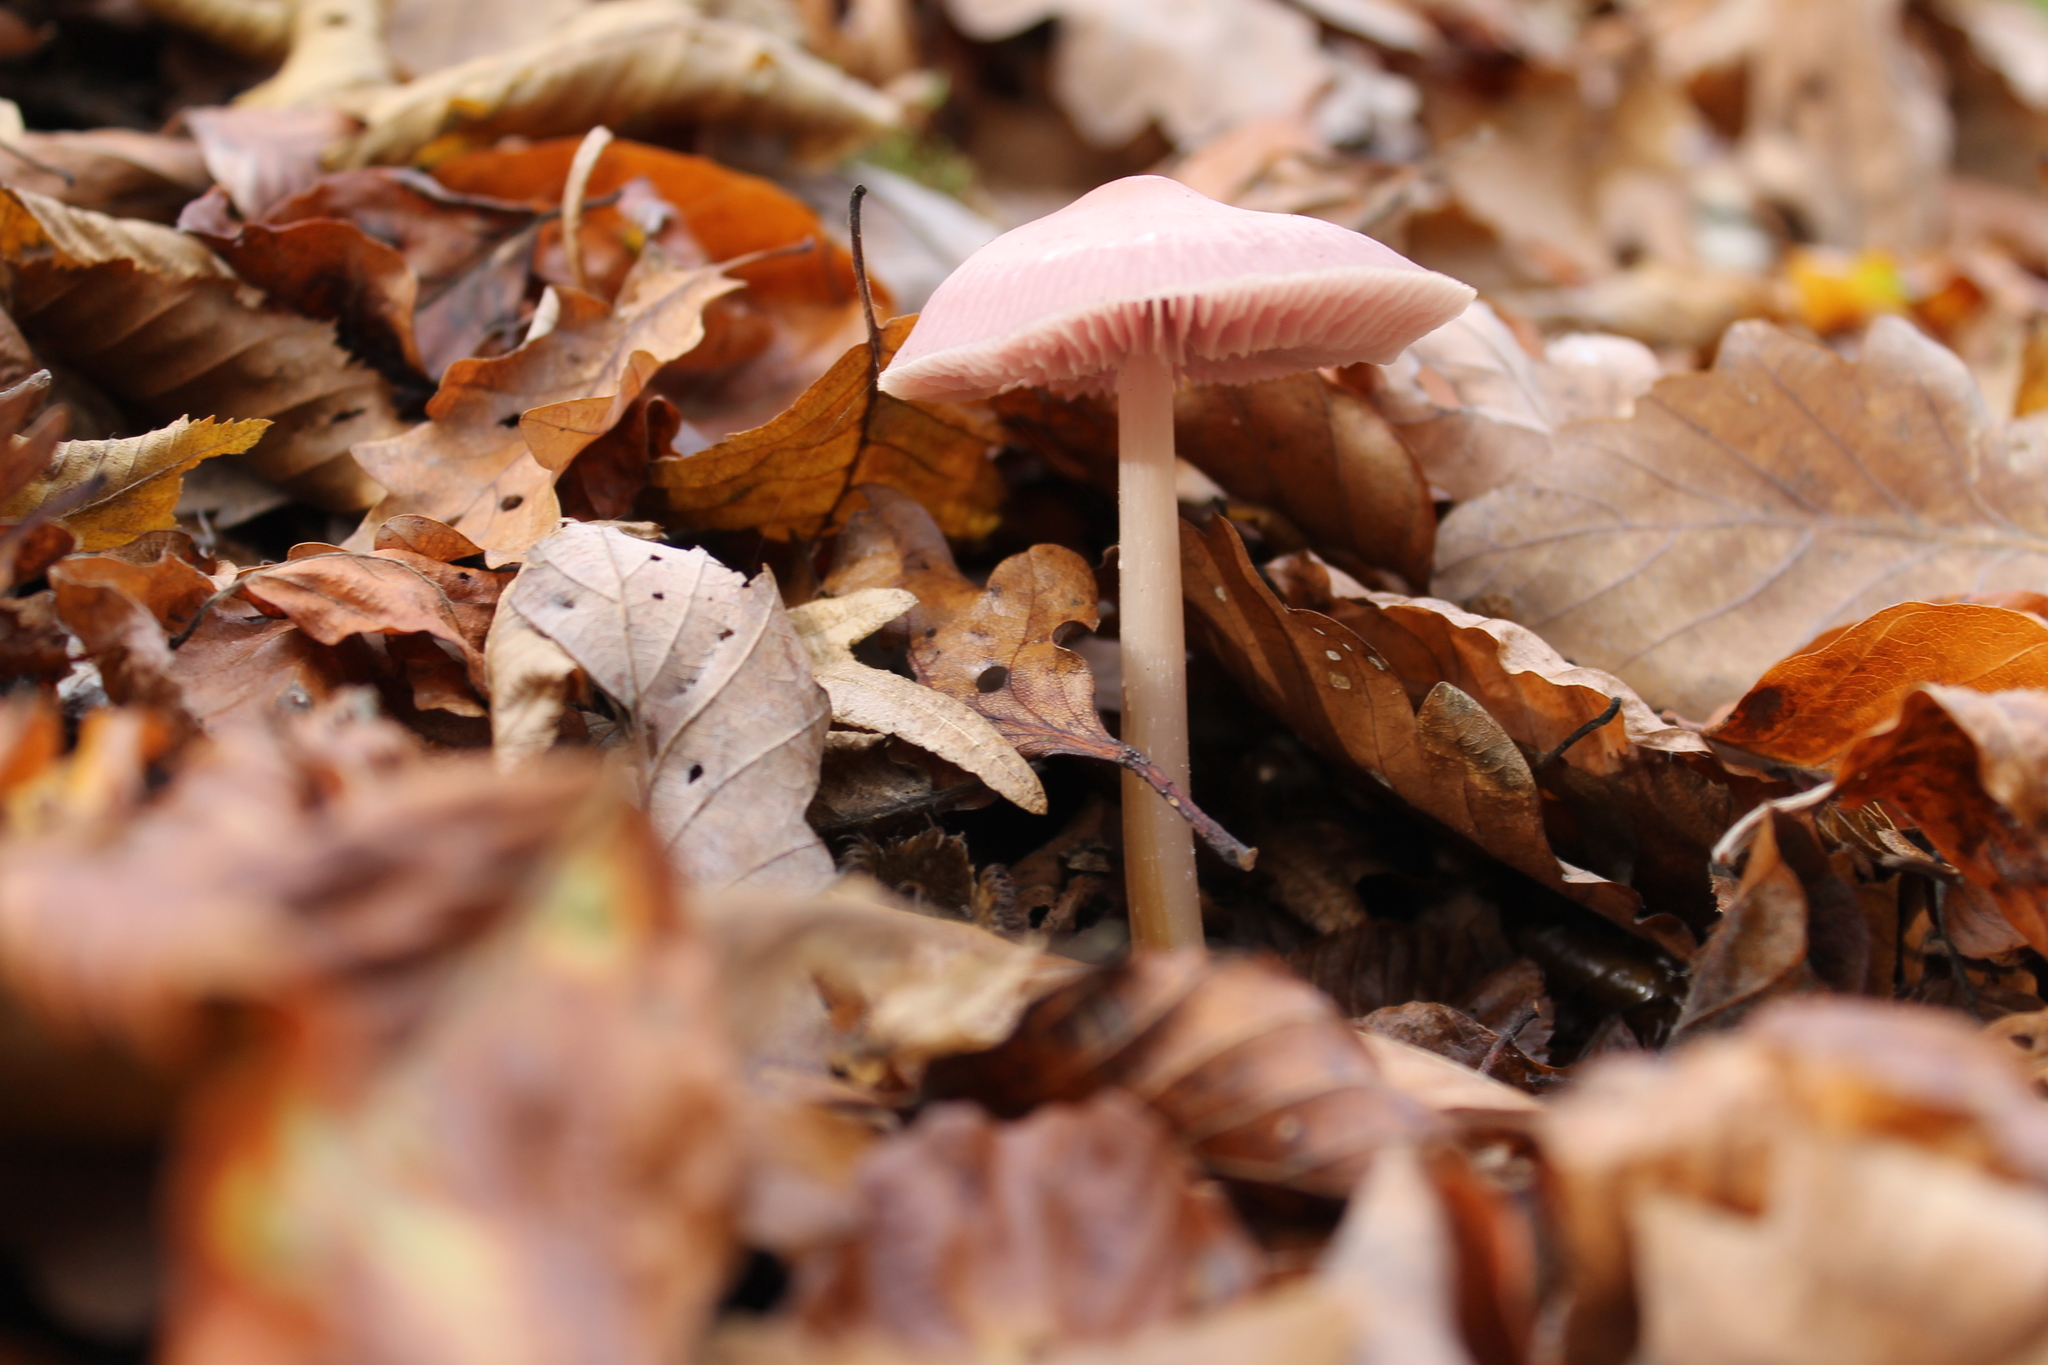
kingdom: Fungi
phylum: Basidiomycota
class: Agaricomycetes
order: Agaricales
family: Mycenaceae
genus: Mycena
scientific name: Mycena rosea
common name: Rosy bonnet
